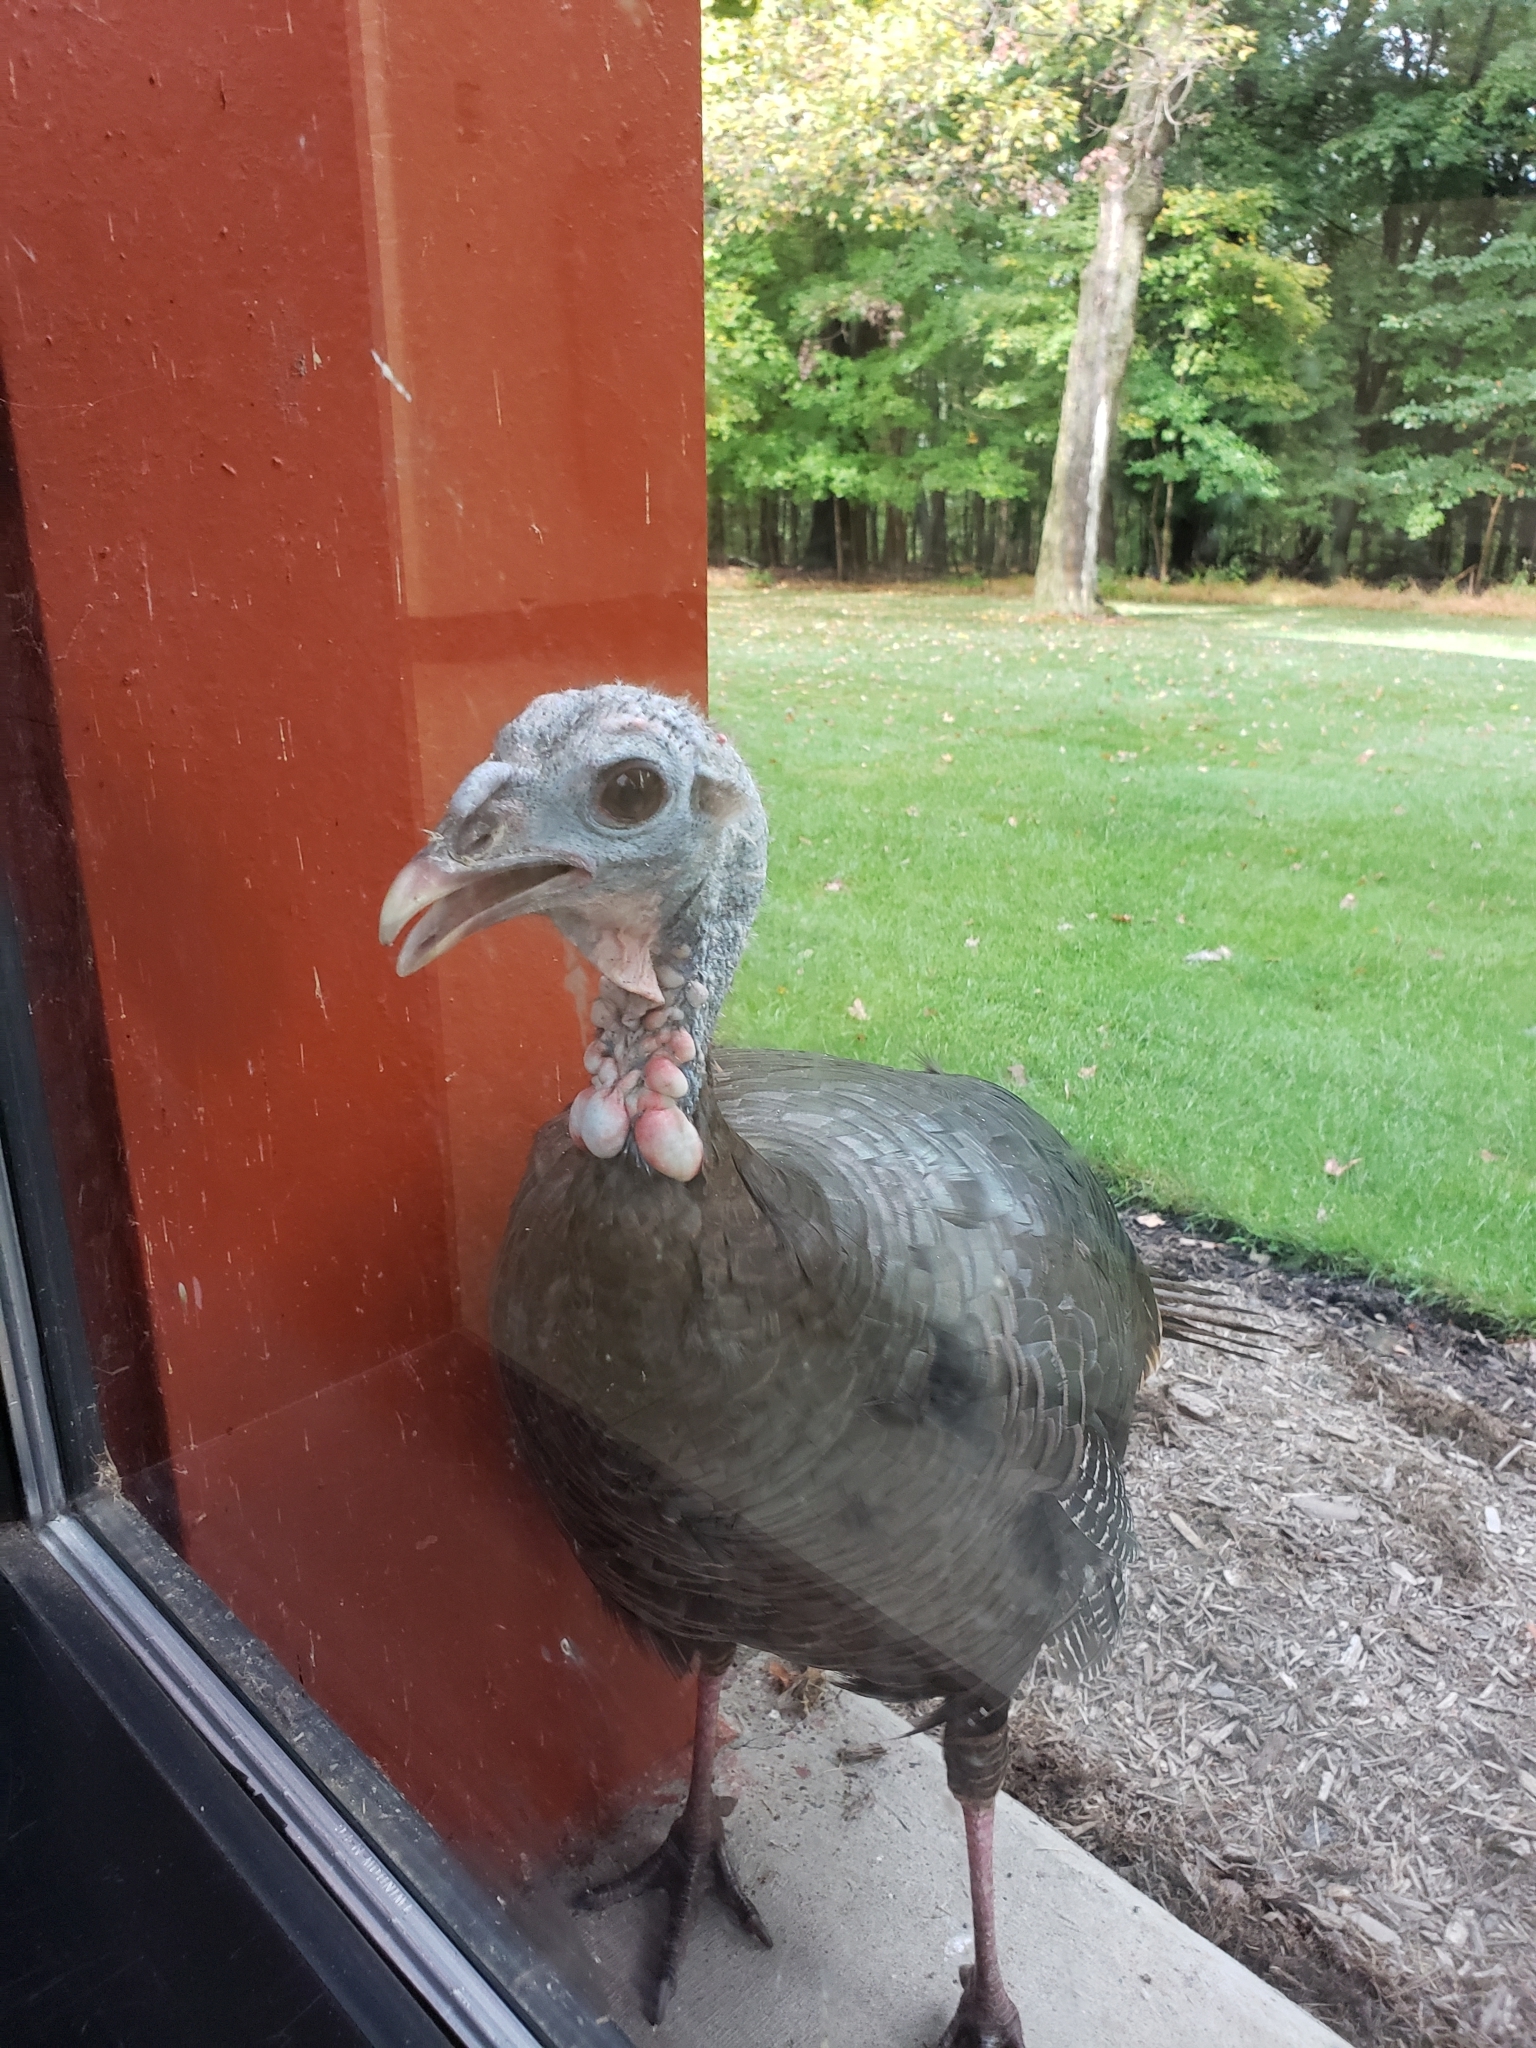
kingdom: Animalia
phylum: Chordata
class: Aves
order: Galliformes
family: Phasianidae
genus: Meleagris
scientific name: Meleagris gallopavo
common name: Wild turkey
